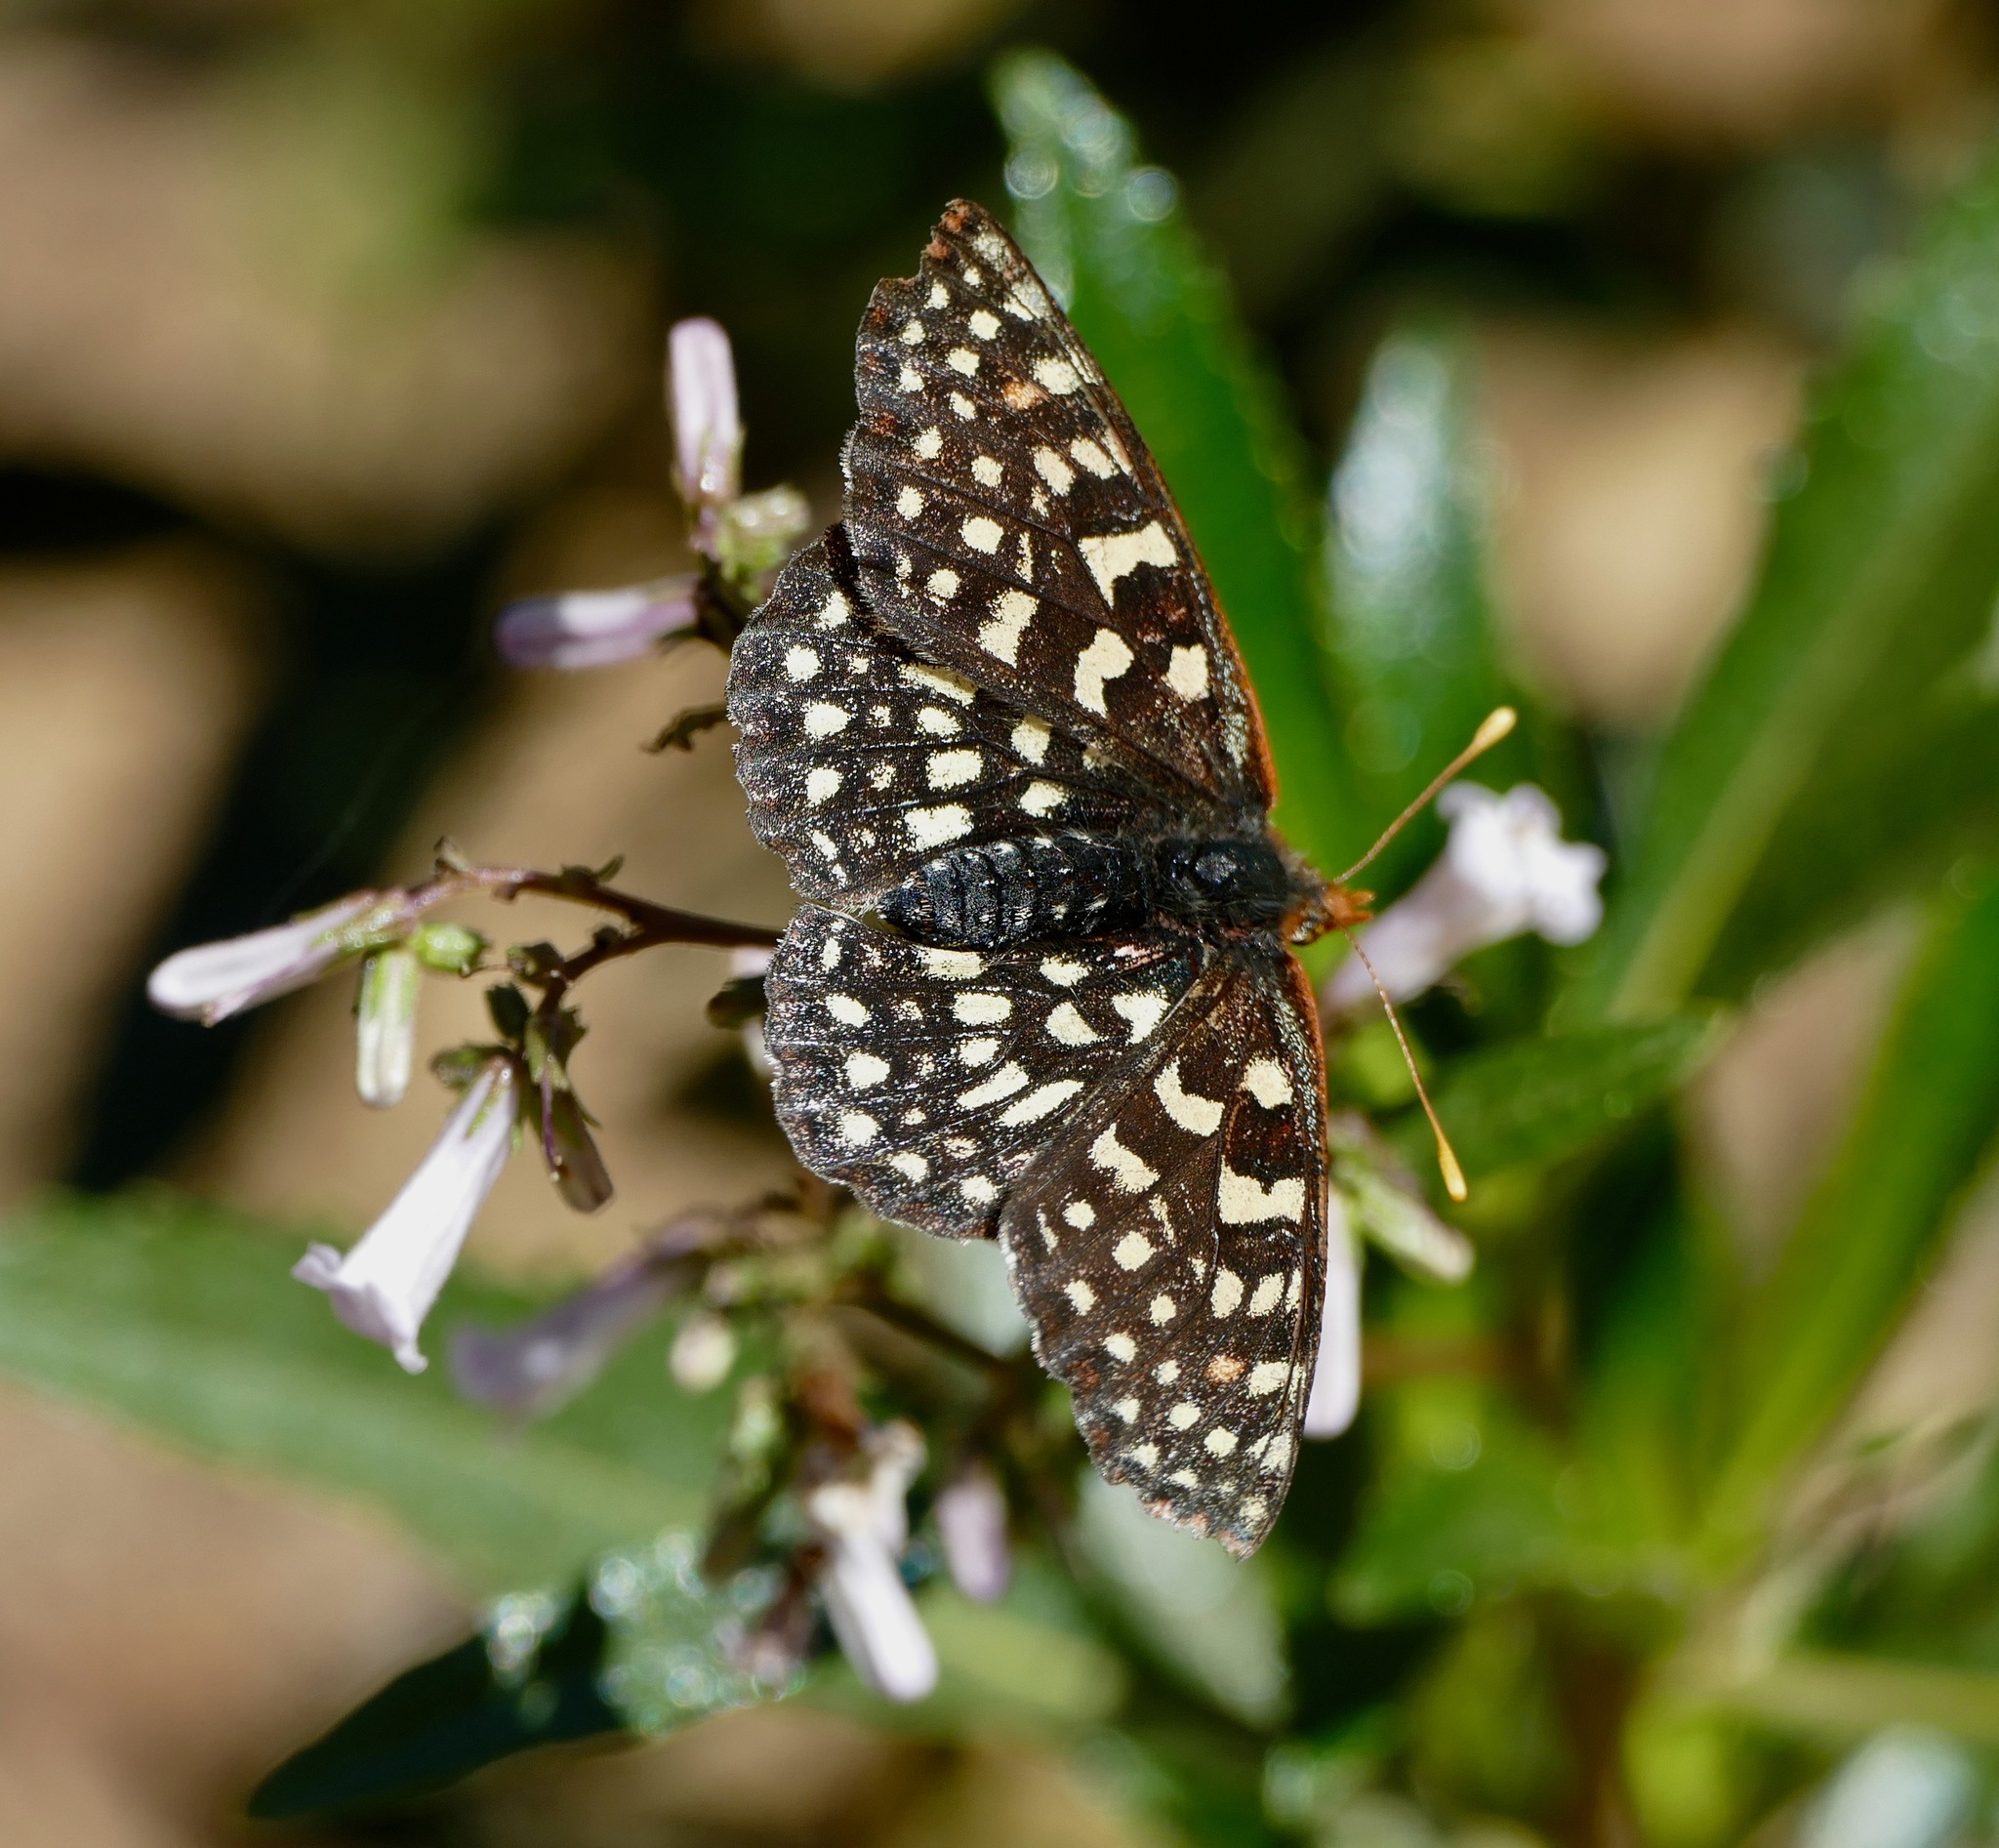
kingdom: Animalia
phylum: Arthropoda
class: Insecta
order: Lepidoptera
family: Nymphalidae
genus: Occidryas
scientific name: Occidryas chalcedona
